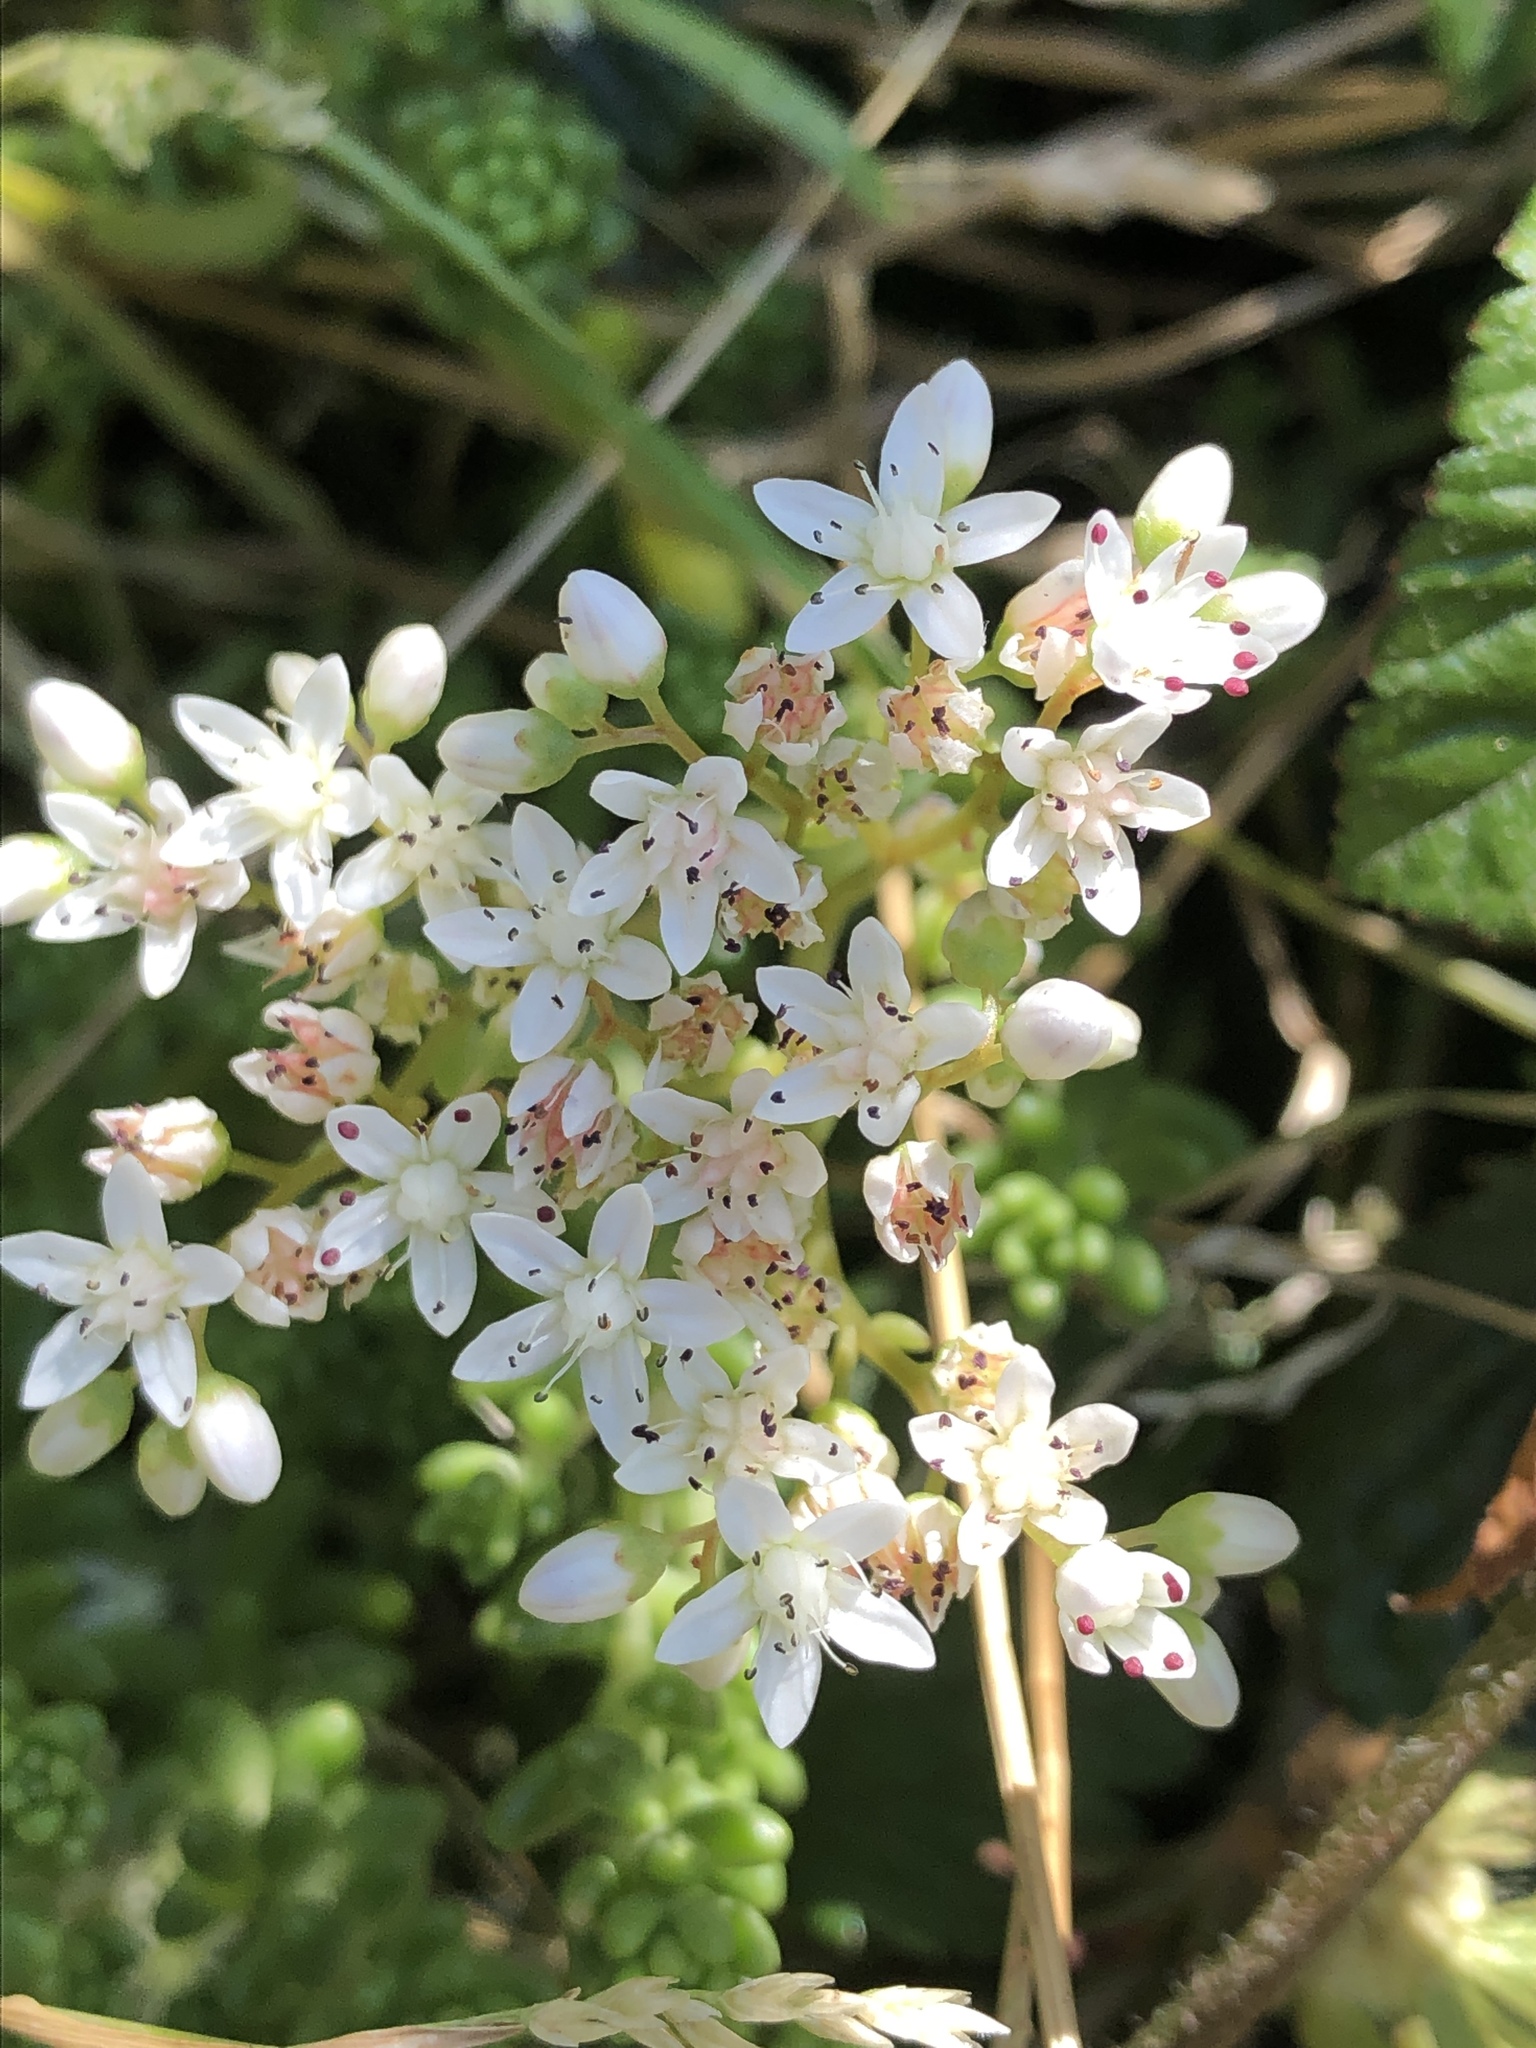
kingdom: Plantae
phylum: Tracheophyta
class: Magnoliopsida
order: Saxifragales
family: Crassulaceae
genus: Sedum
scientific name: Sedum album
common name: White stonecrop
